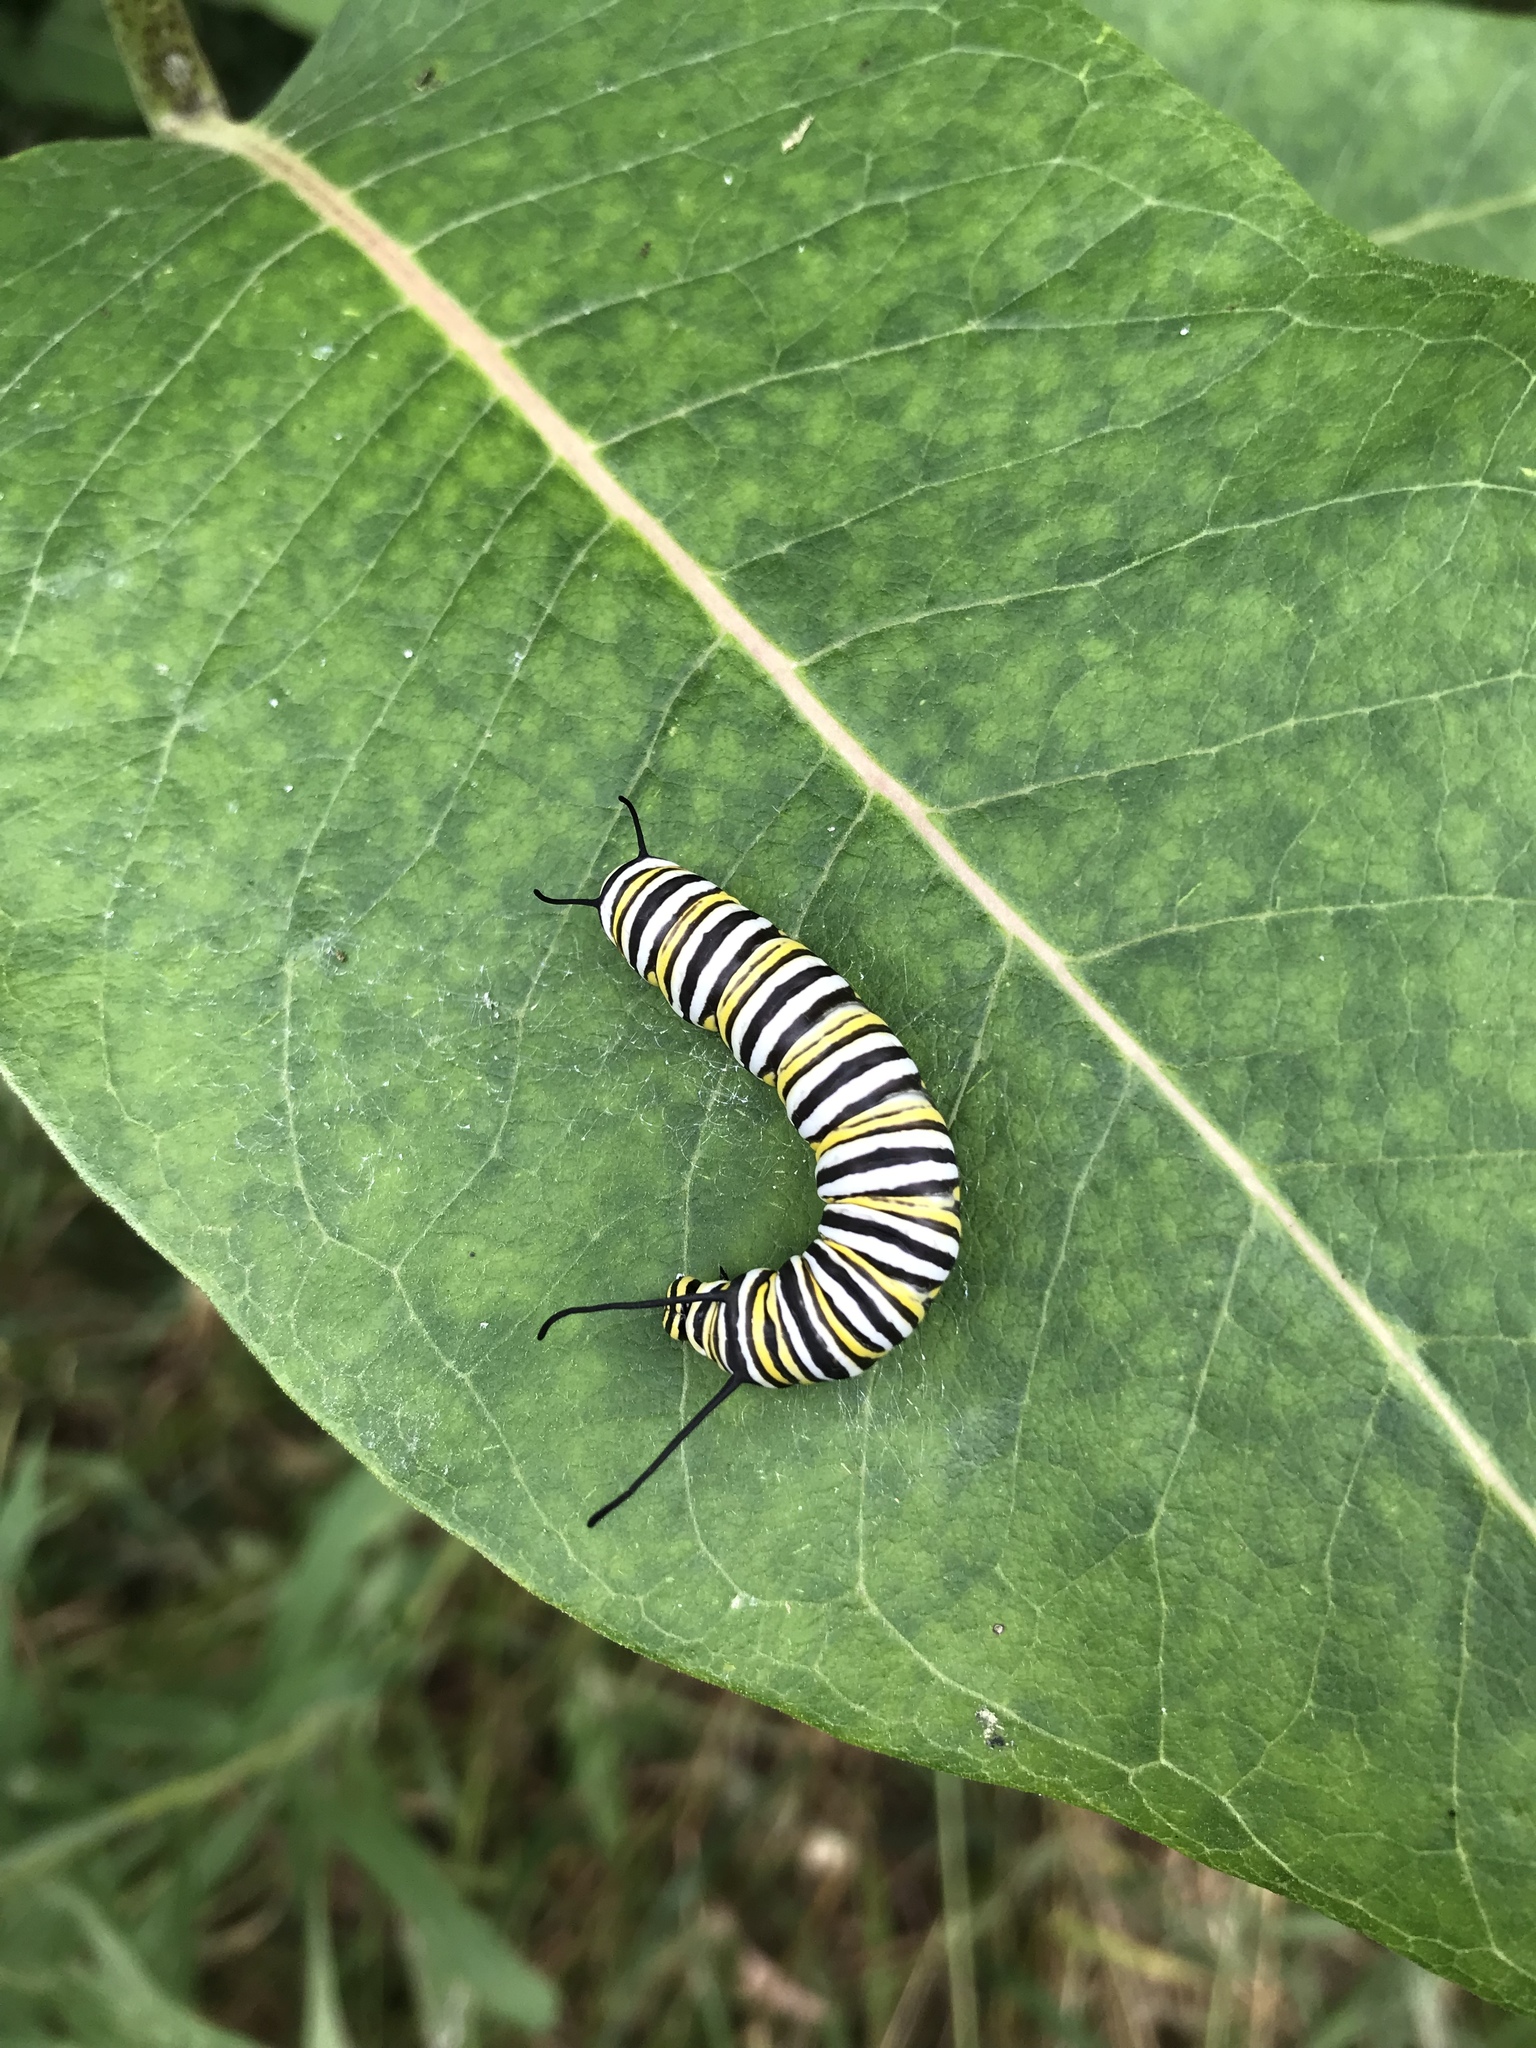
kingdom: Animalia
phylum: Arthropoda
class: Insecta
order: Lepidoptera
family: Nymphalidae
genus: Danaus
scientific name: Danaus plexippus
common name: Monarch
